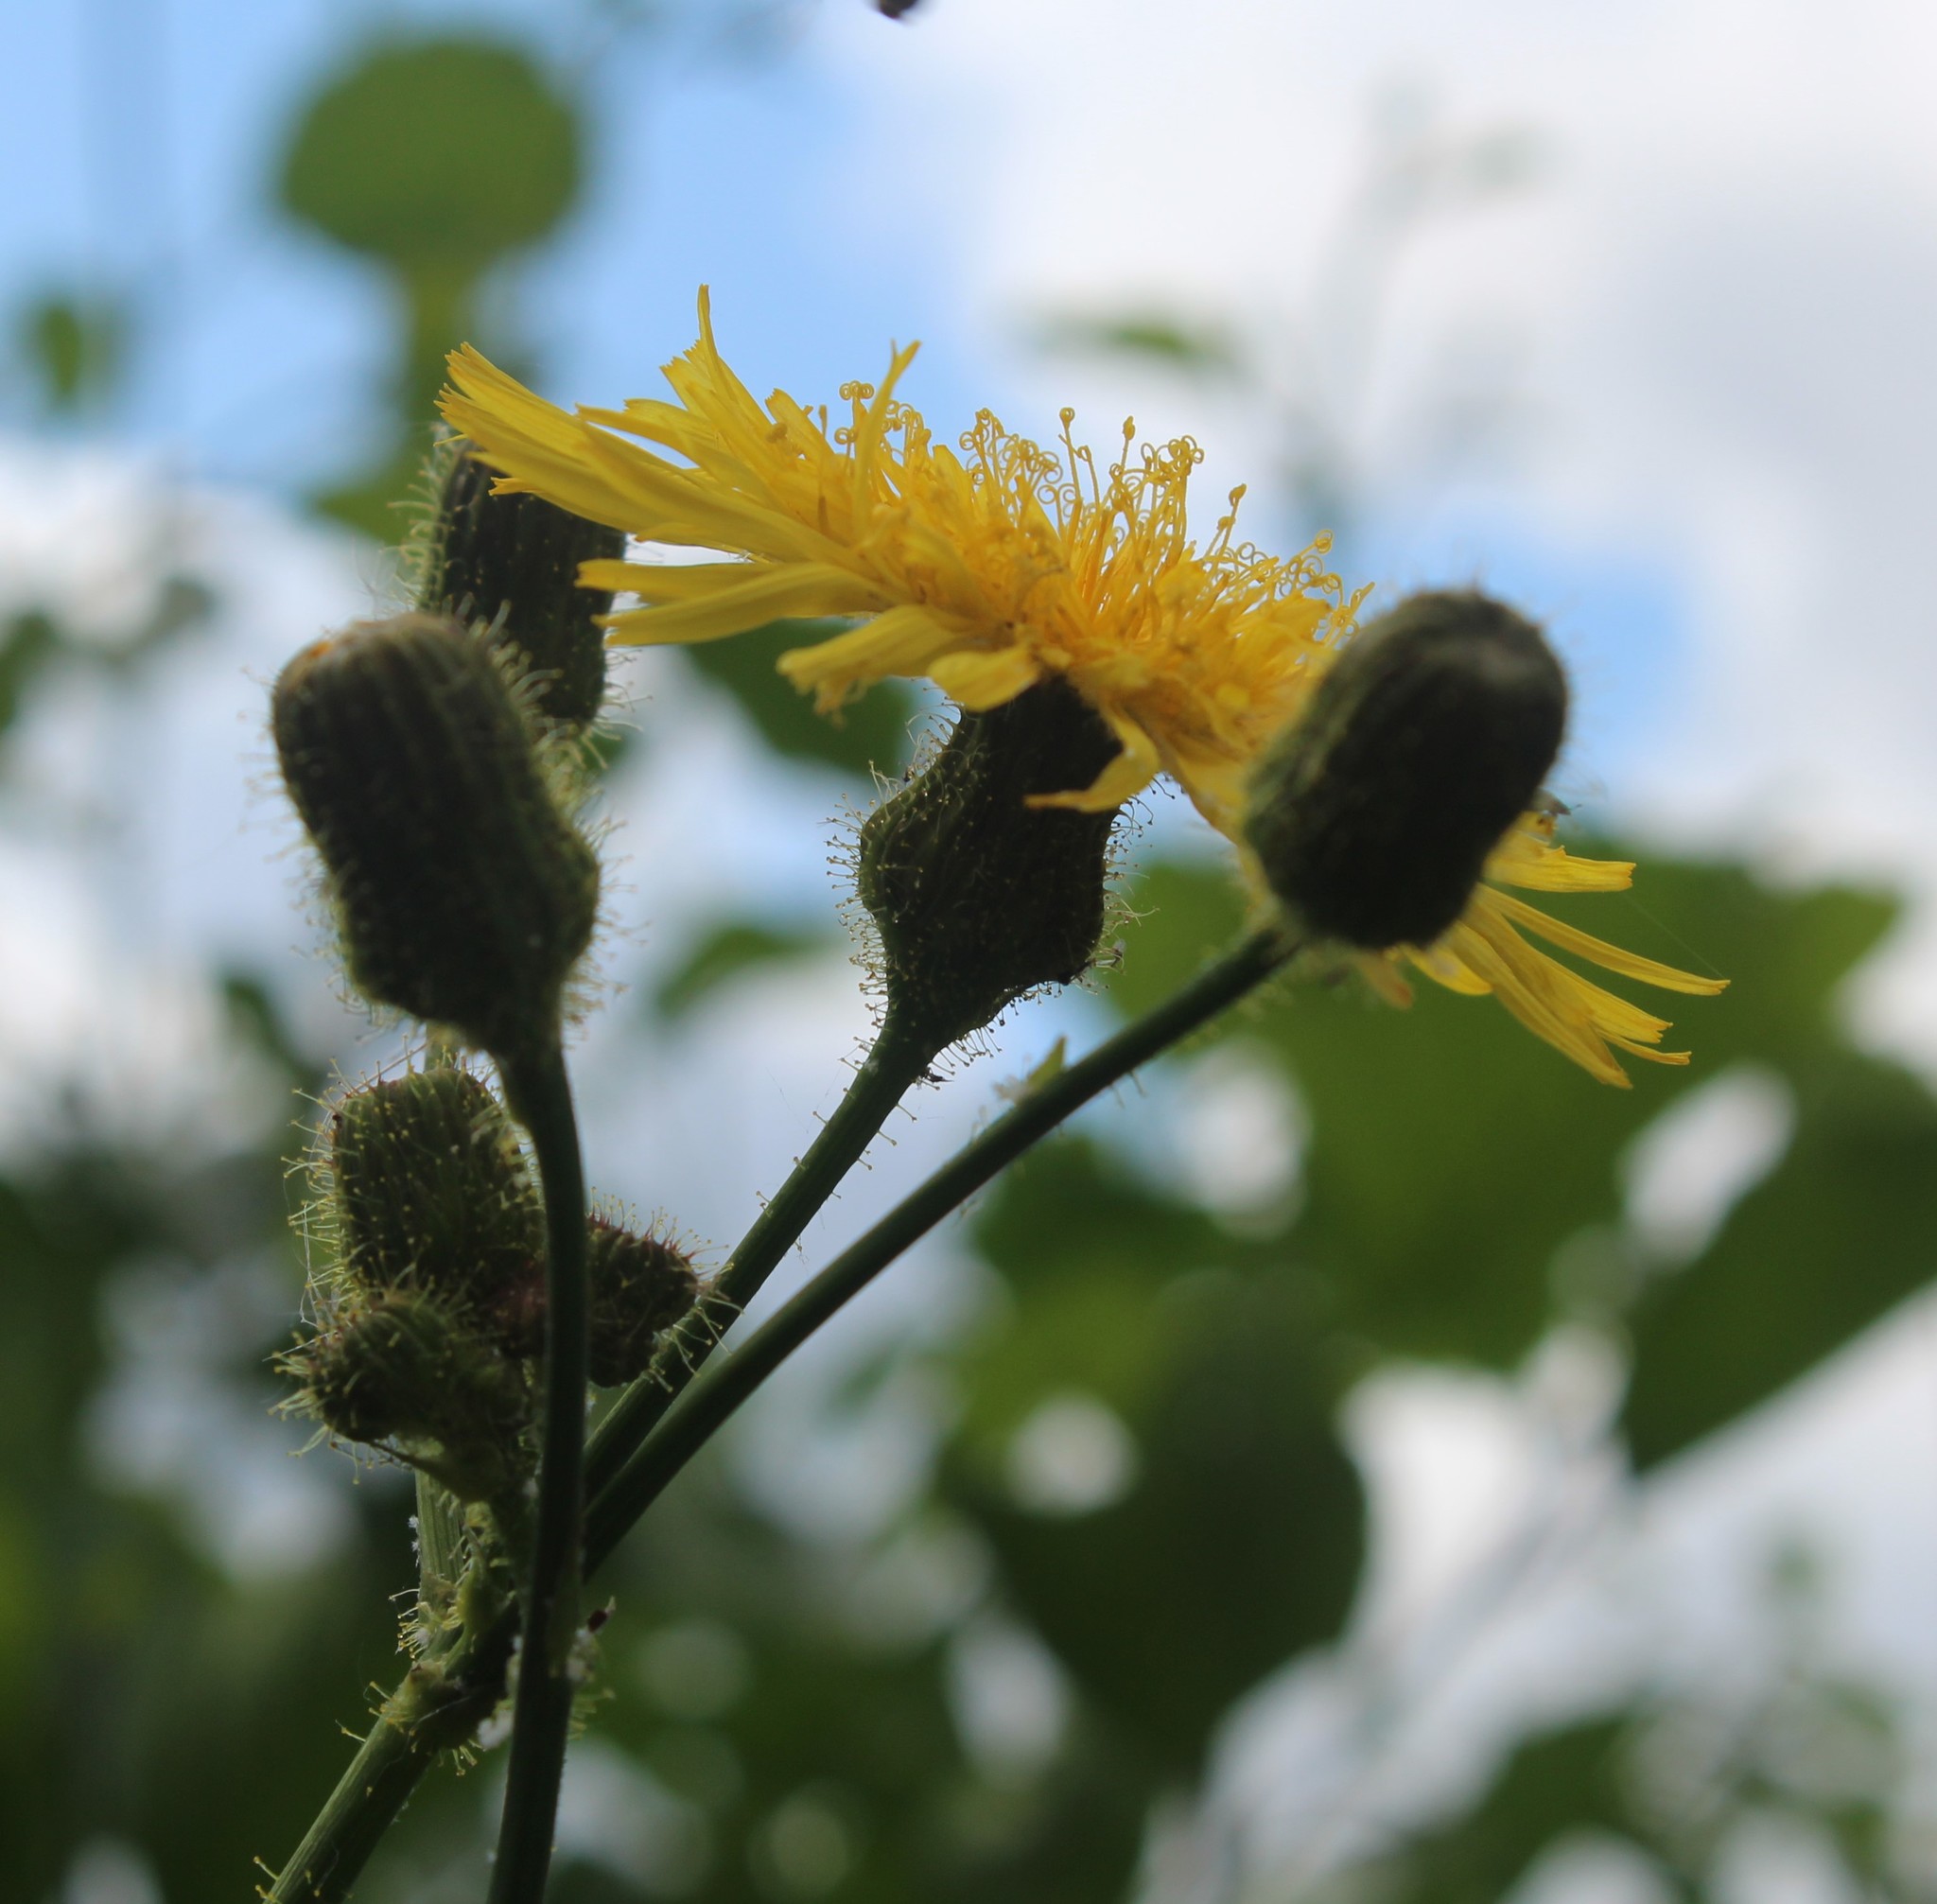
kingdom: Plantae
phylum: Tracheophyta
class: Magnoliopsida
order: Asterales
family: Asteraceae
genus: Sonchus
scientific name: Sonchus arvensis
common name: Perennial sow-thistle
